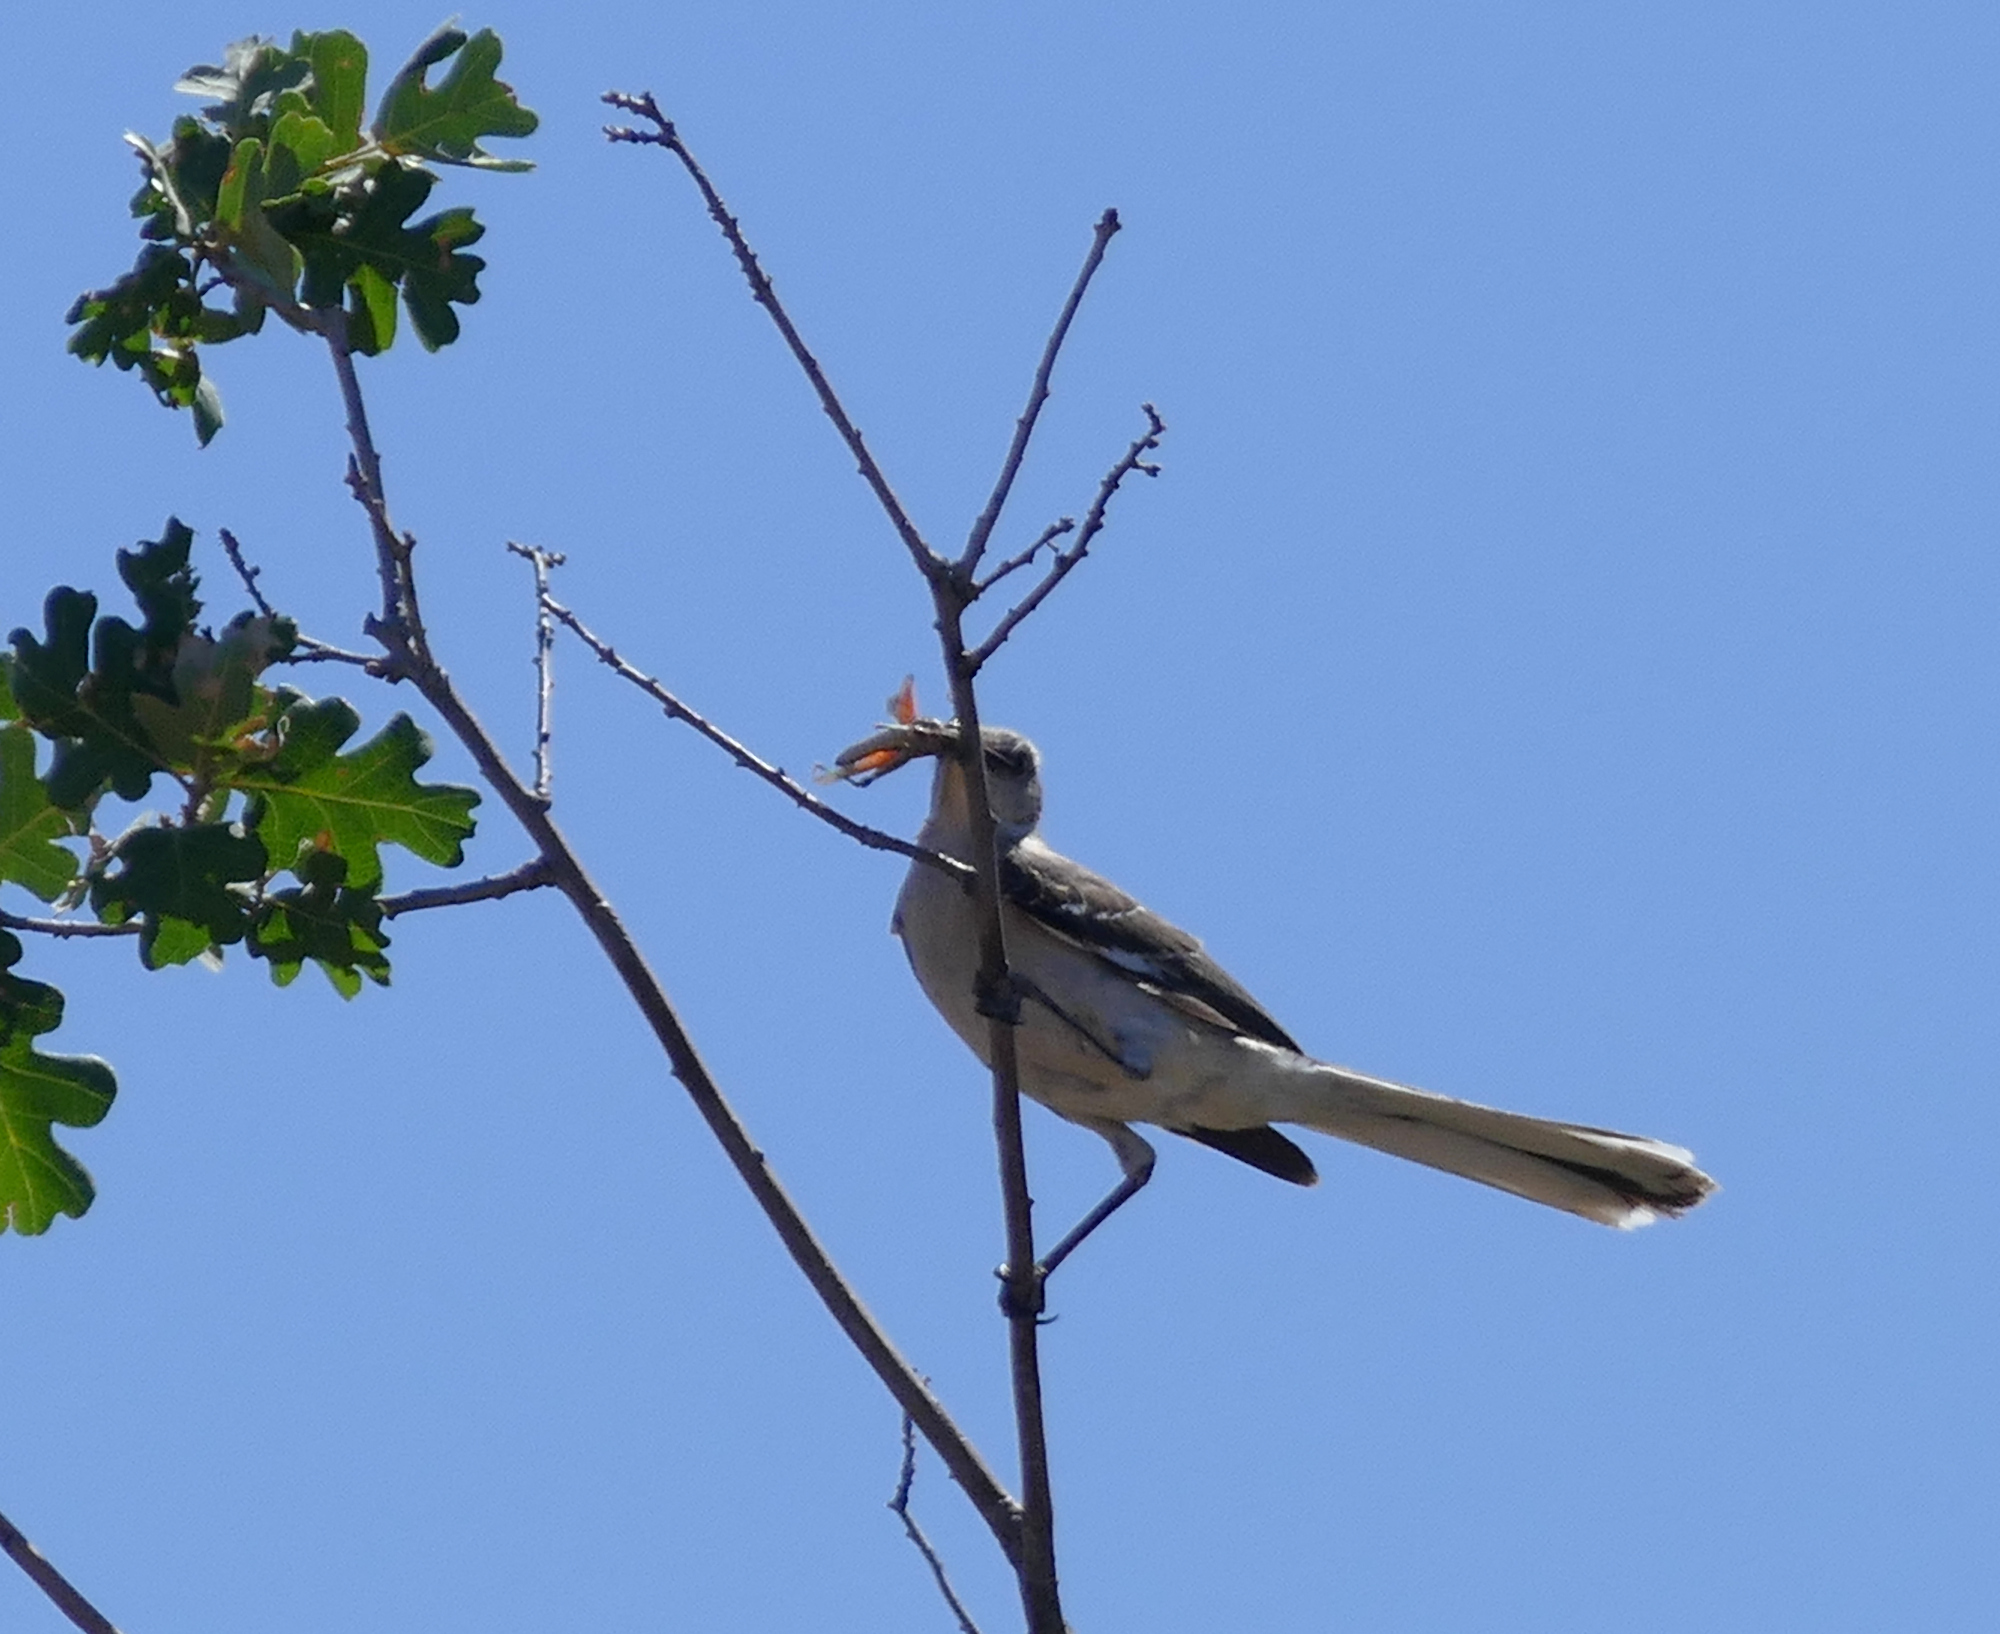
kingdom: Animalia
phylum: Chordata
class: Aves
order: Passeriformes
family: Mimidae
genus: Mimus
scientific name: Mimus polyglottos
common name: Northern mockingbird
